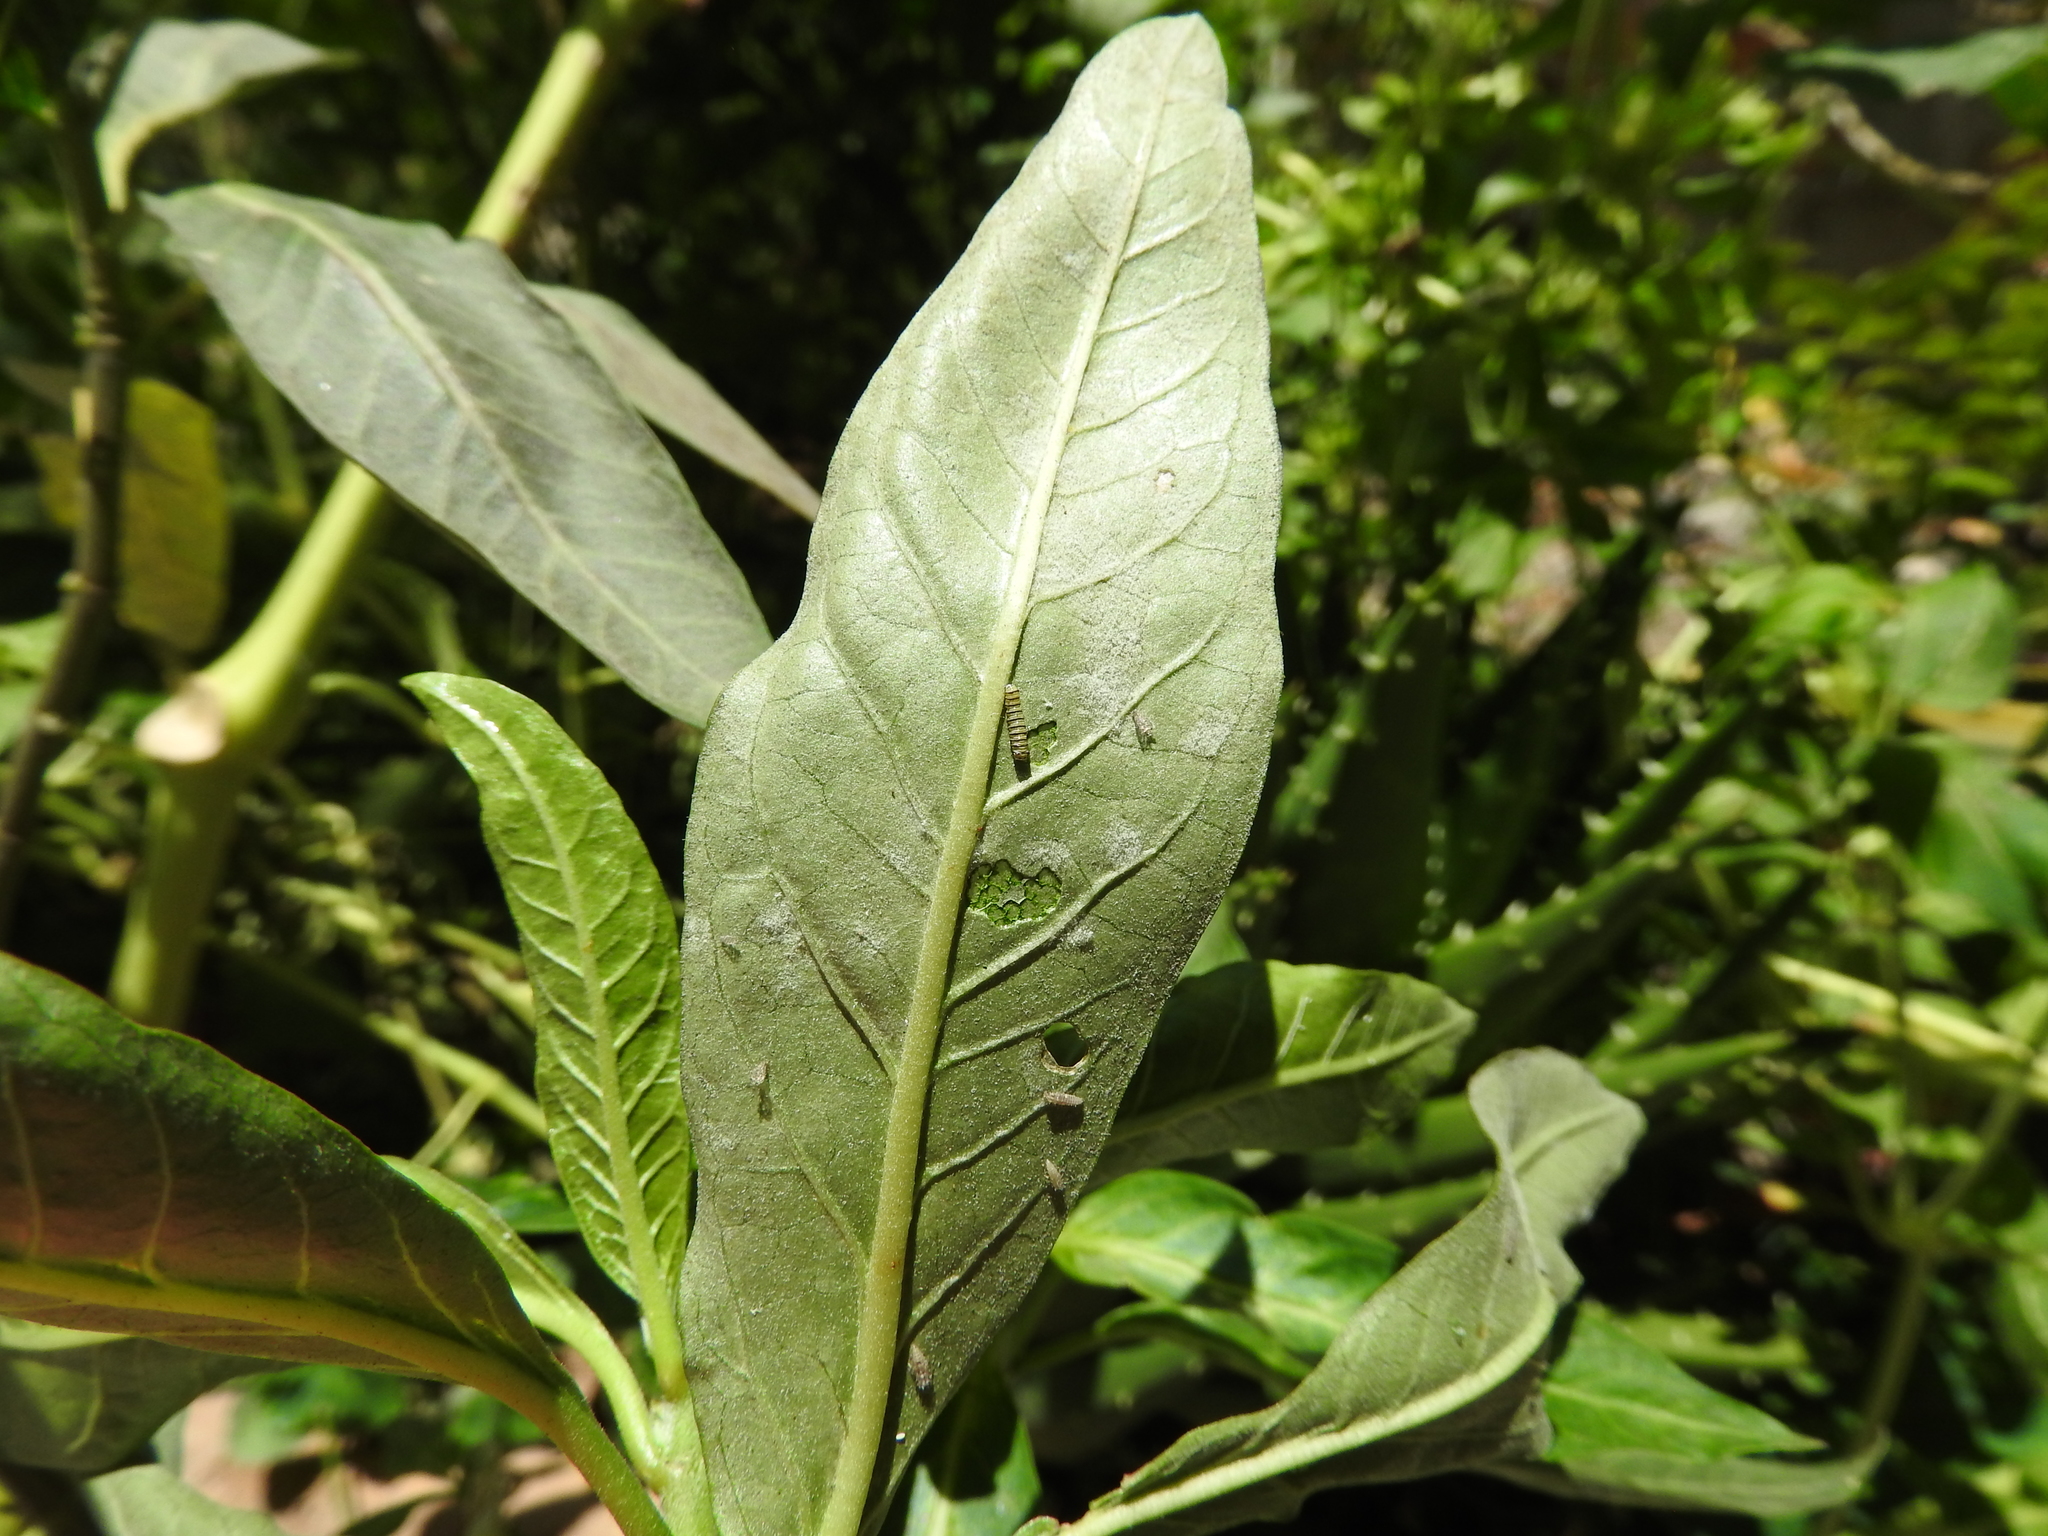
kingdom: Animalia
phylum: Arthropoda
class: Insecta
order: Lepidoptera
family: Nymphalidae
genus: Danaus
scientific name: Danaus plexippus
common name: Monarch
